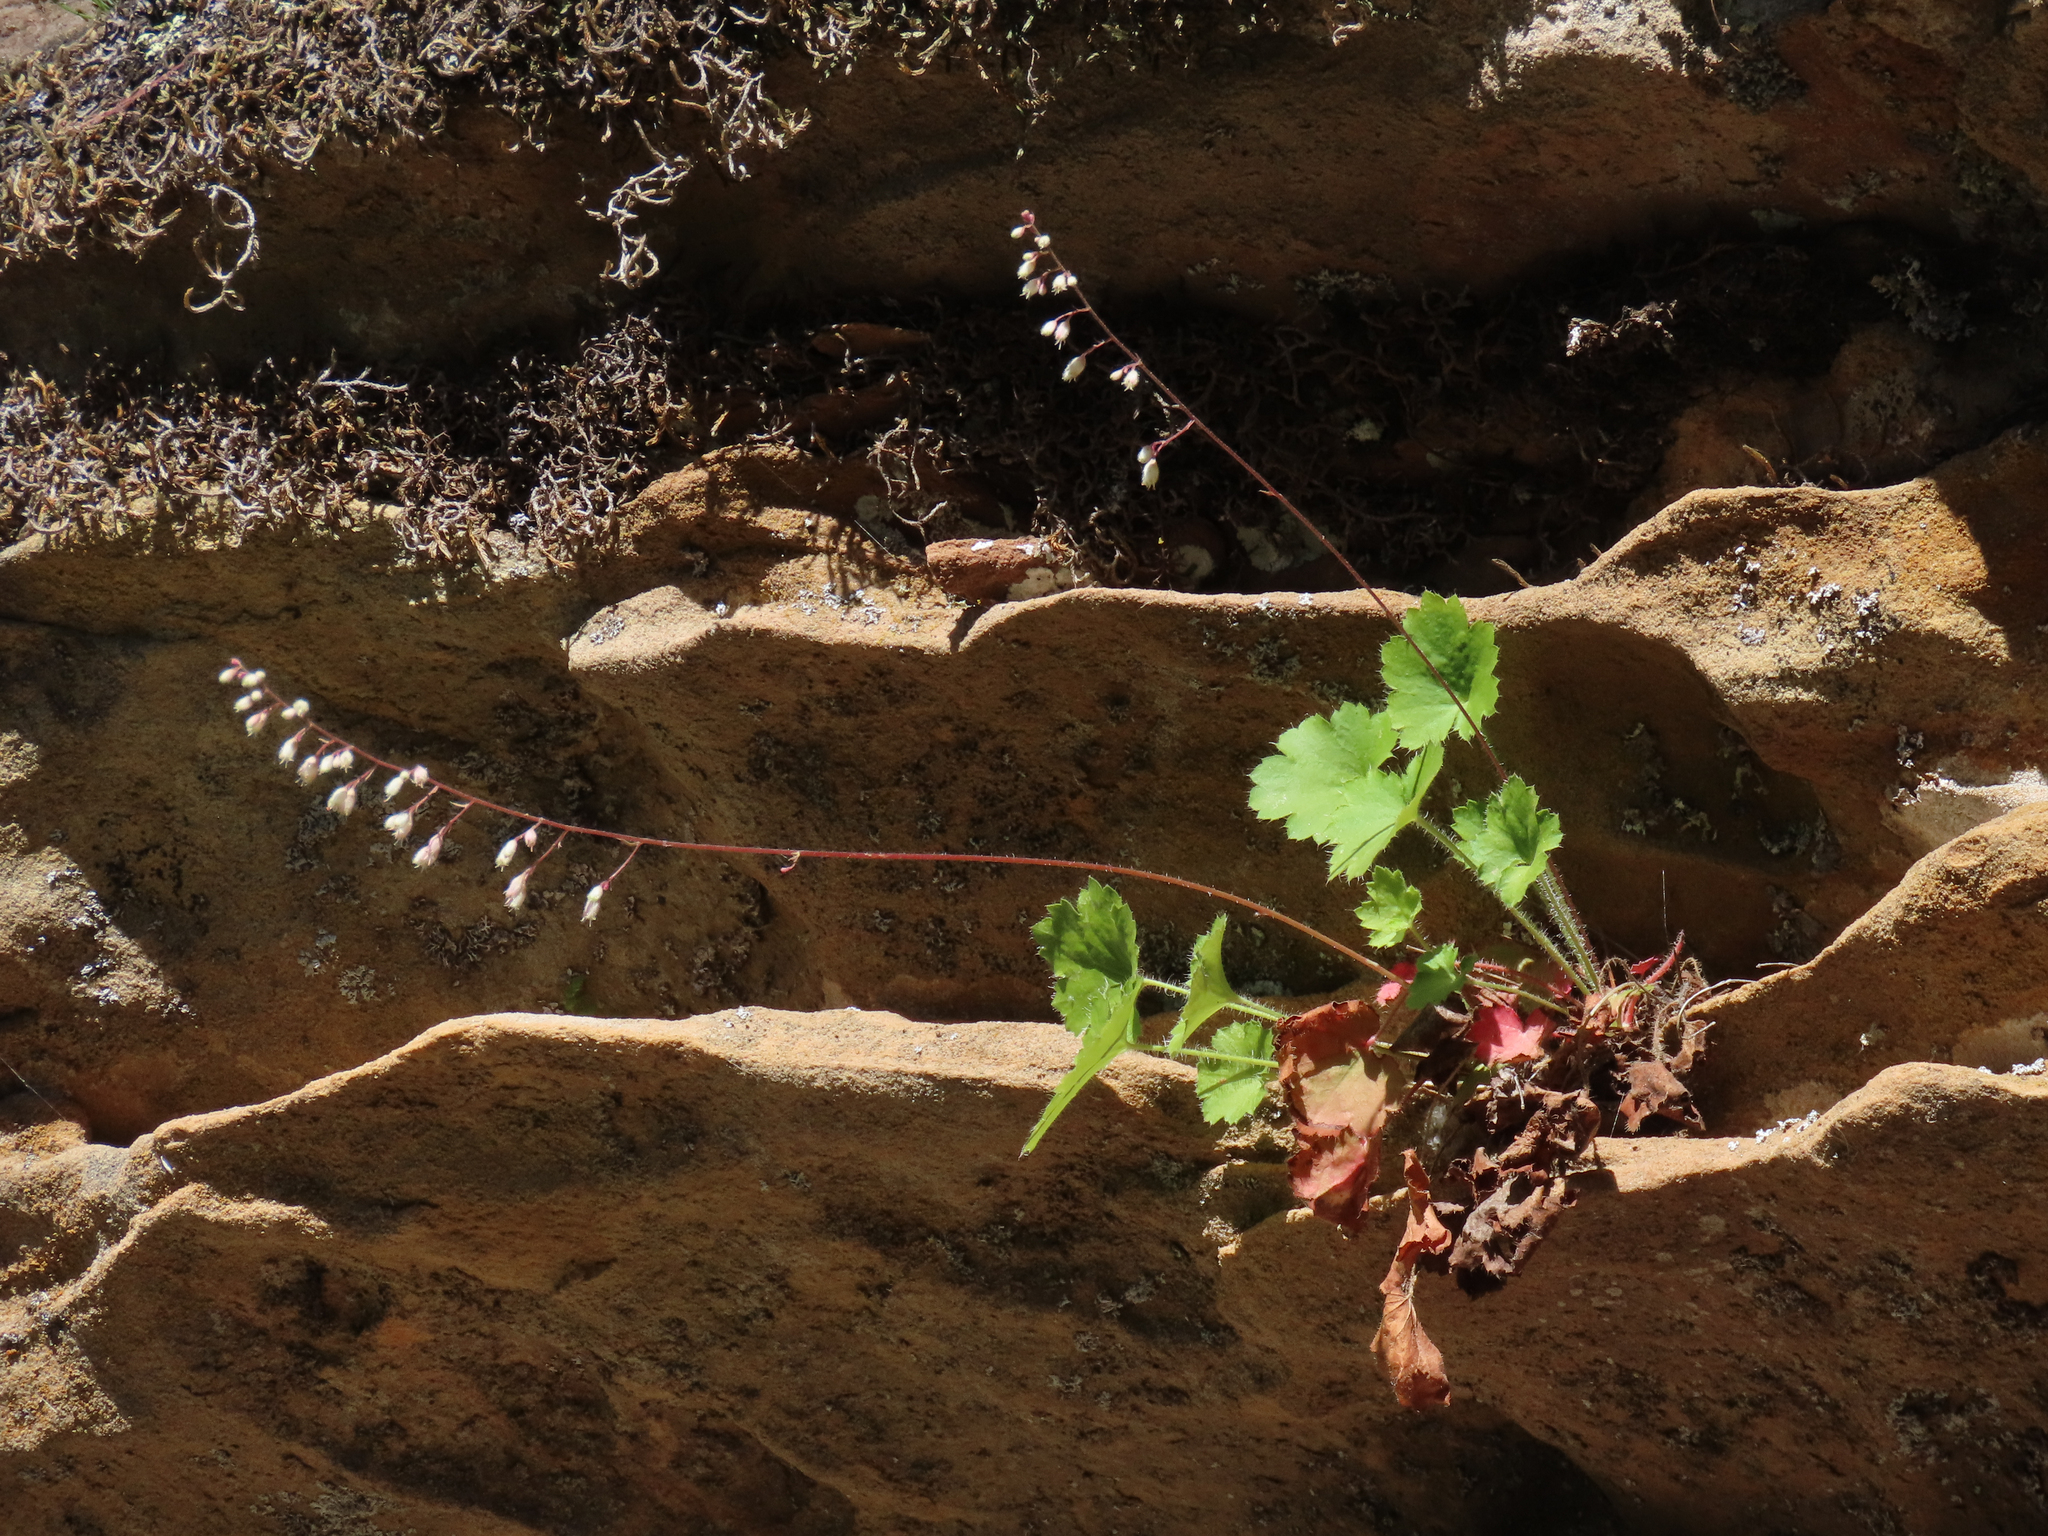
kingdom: Plantae
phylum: Tracheophyta
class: Magnoliopsida
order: Saxifragales
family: Saxifragaceae
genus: Heuchera
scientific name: Heuchera rubescens
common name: Jack-o'the-rocks
